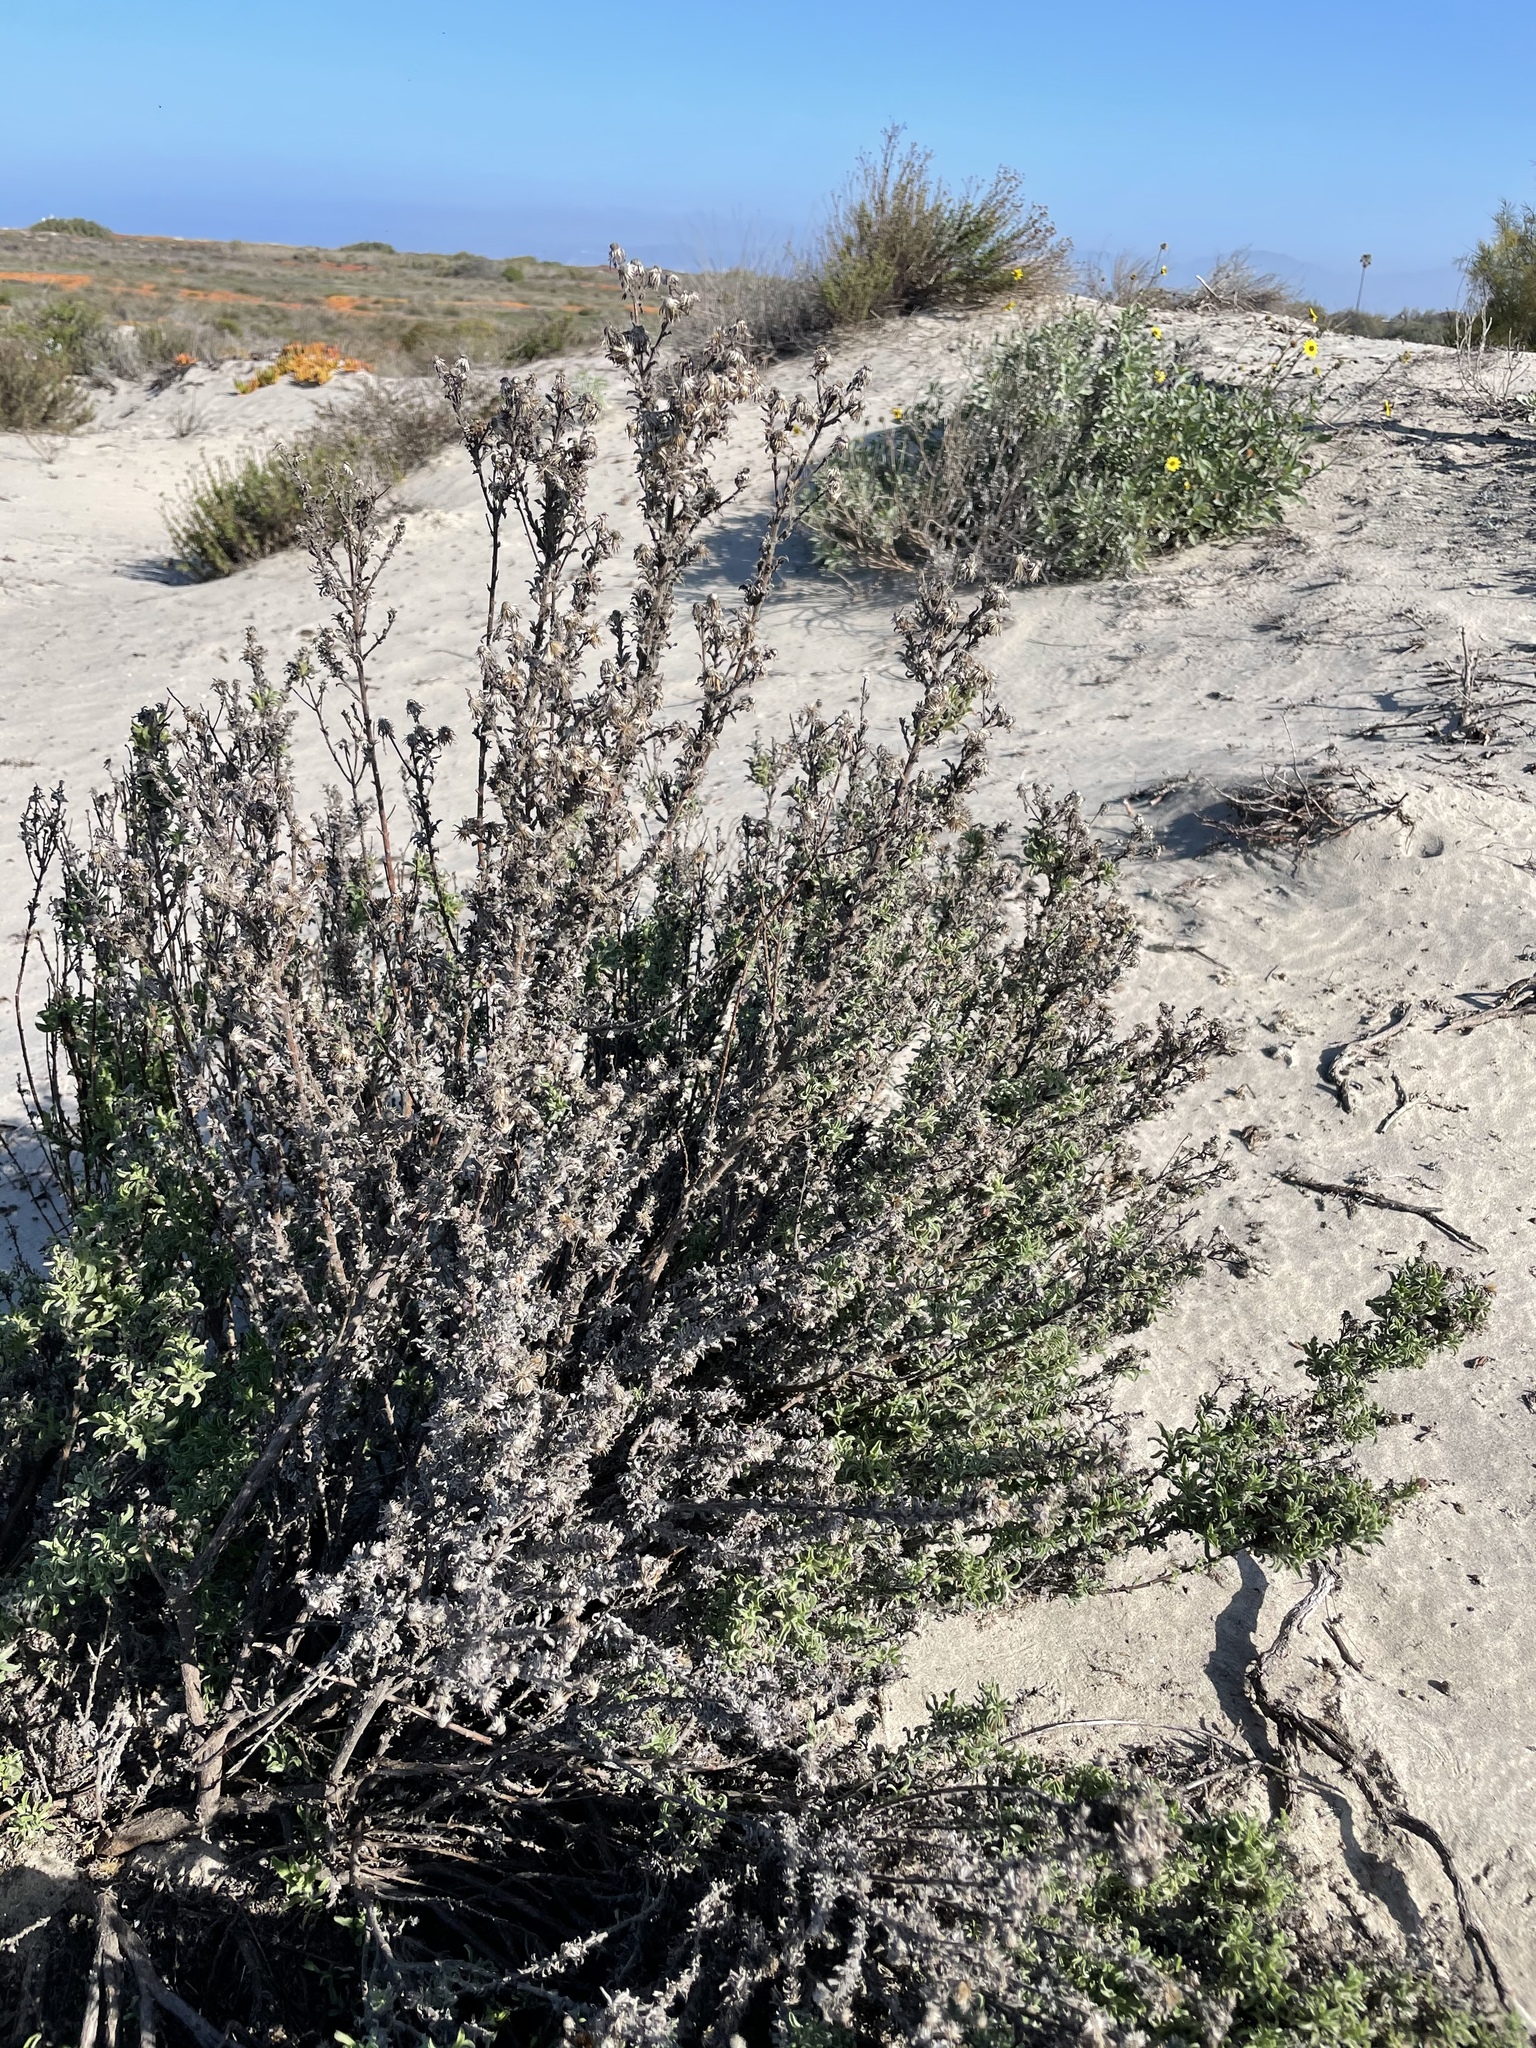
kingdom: Plantae
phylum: Tracheophyta
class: Magnoliopsida
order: Asterales
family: Asteraceae
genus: Heterotheca
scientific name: Heterotheca sessiliflora
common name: Sessile-flower golden-aster
